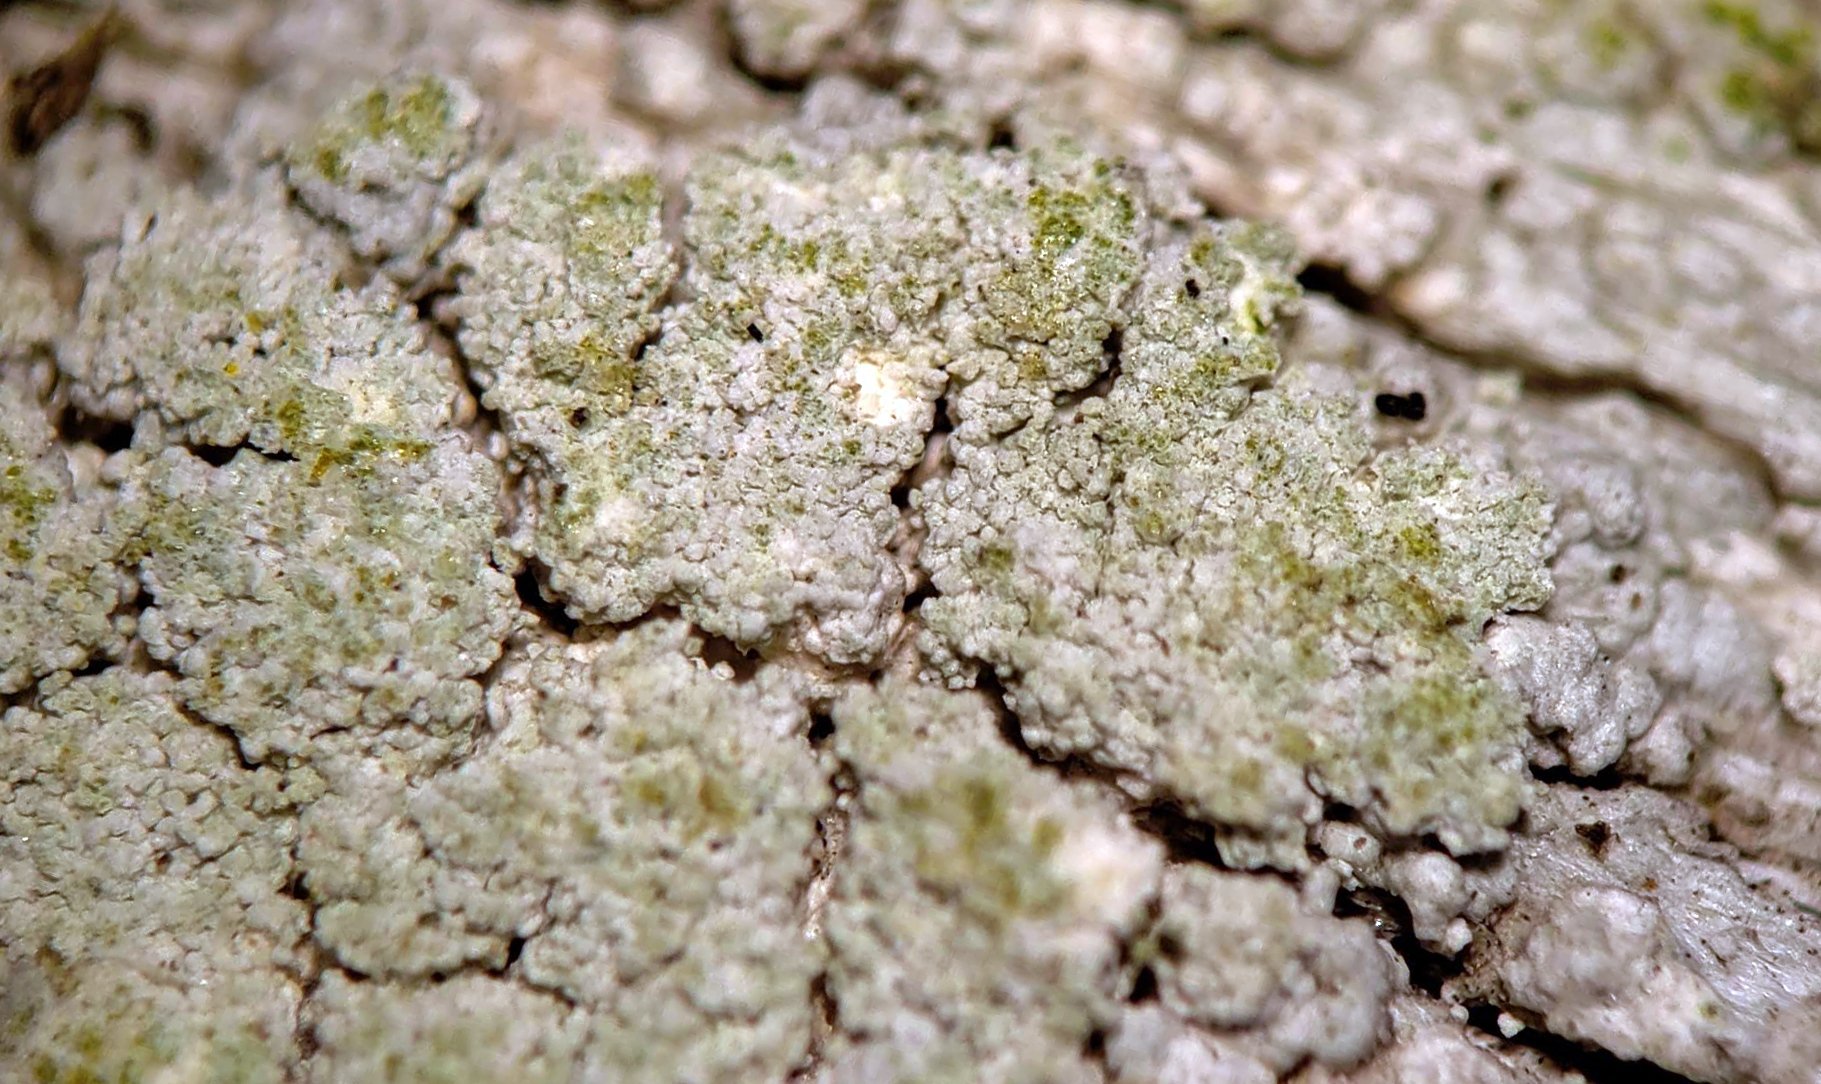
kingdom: Fungi
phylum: Ascomycota
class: Lecanoromycetes
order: Pertusariales
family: Ochrolechiaceae
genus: Ochrolechia
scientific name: Ochrolechia mahluensis
